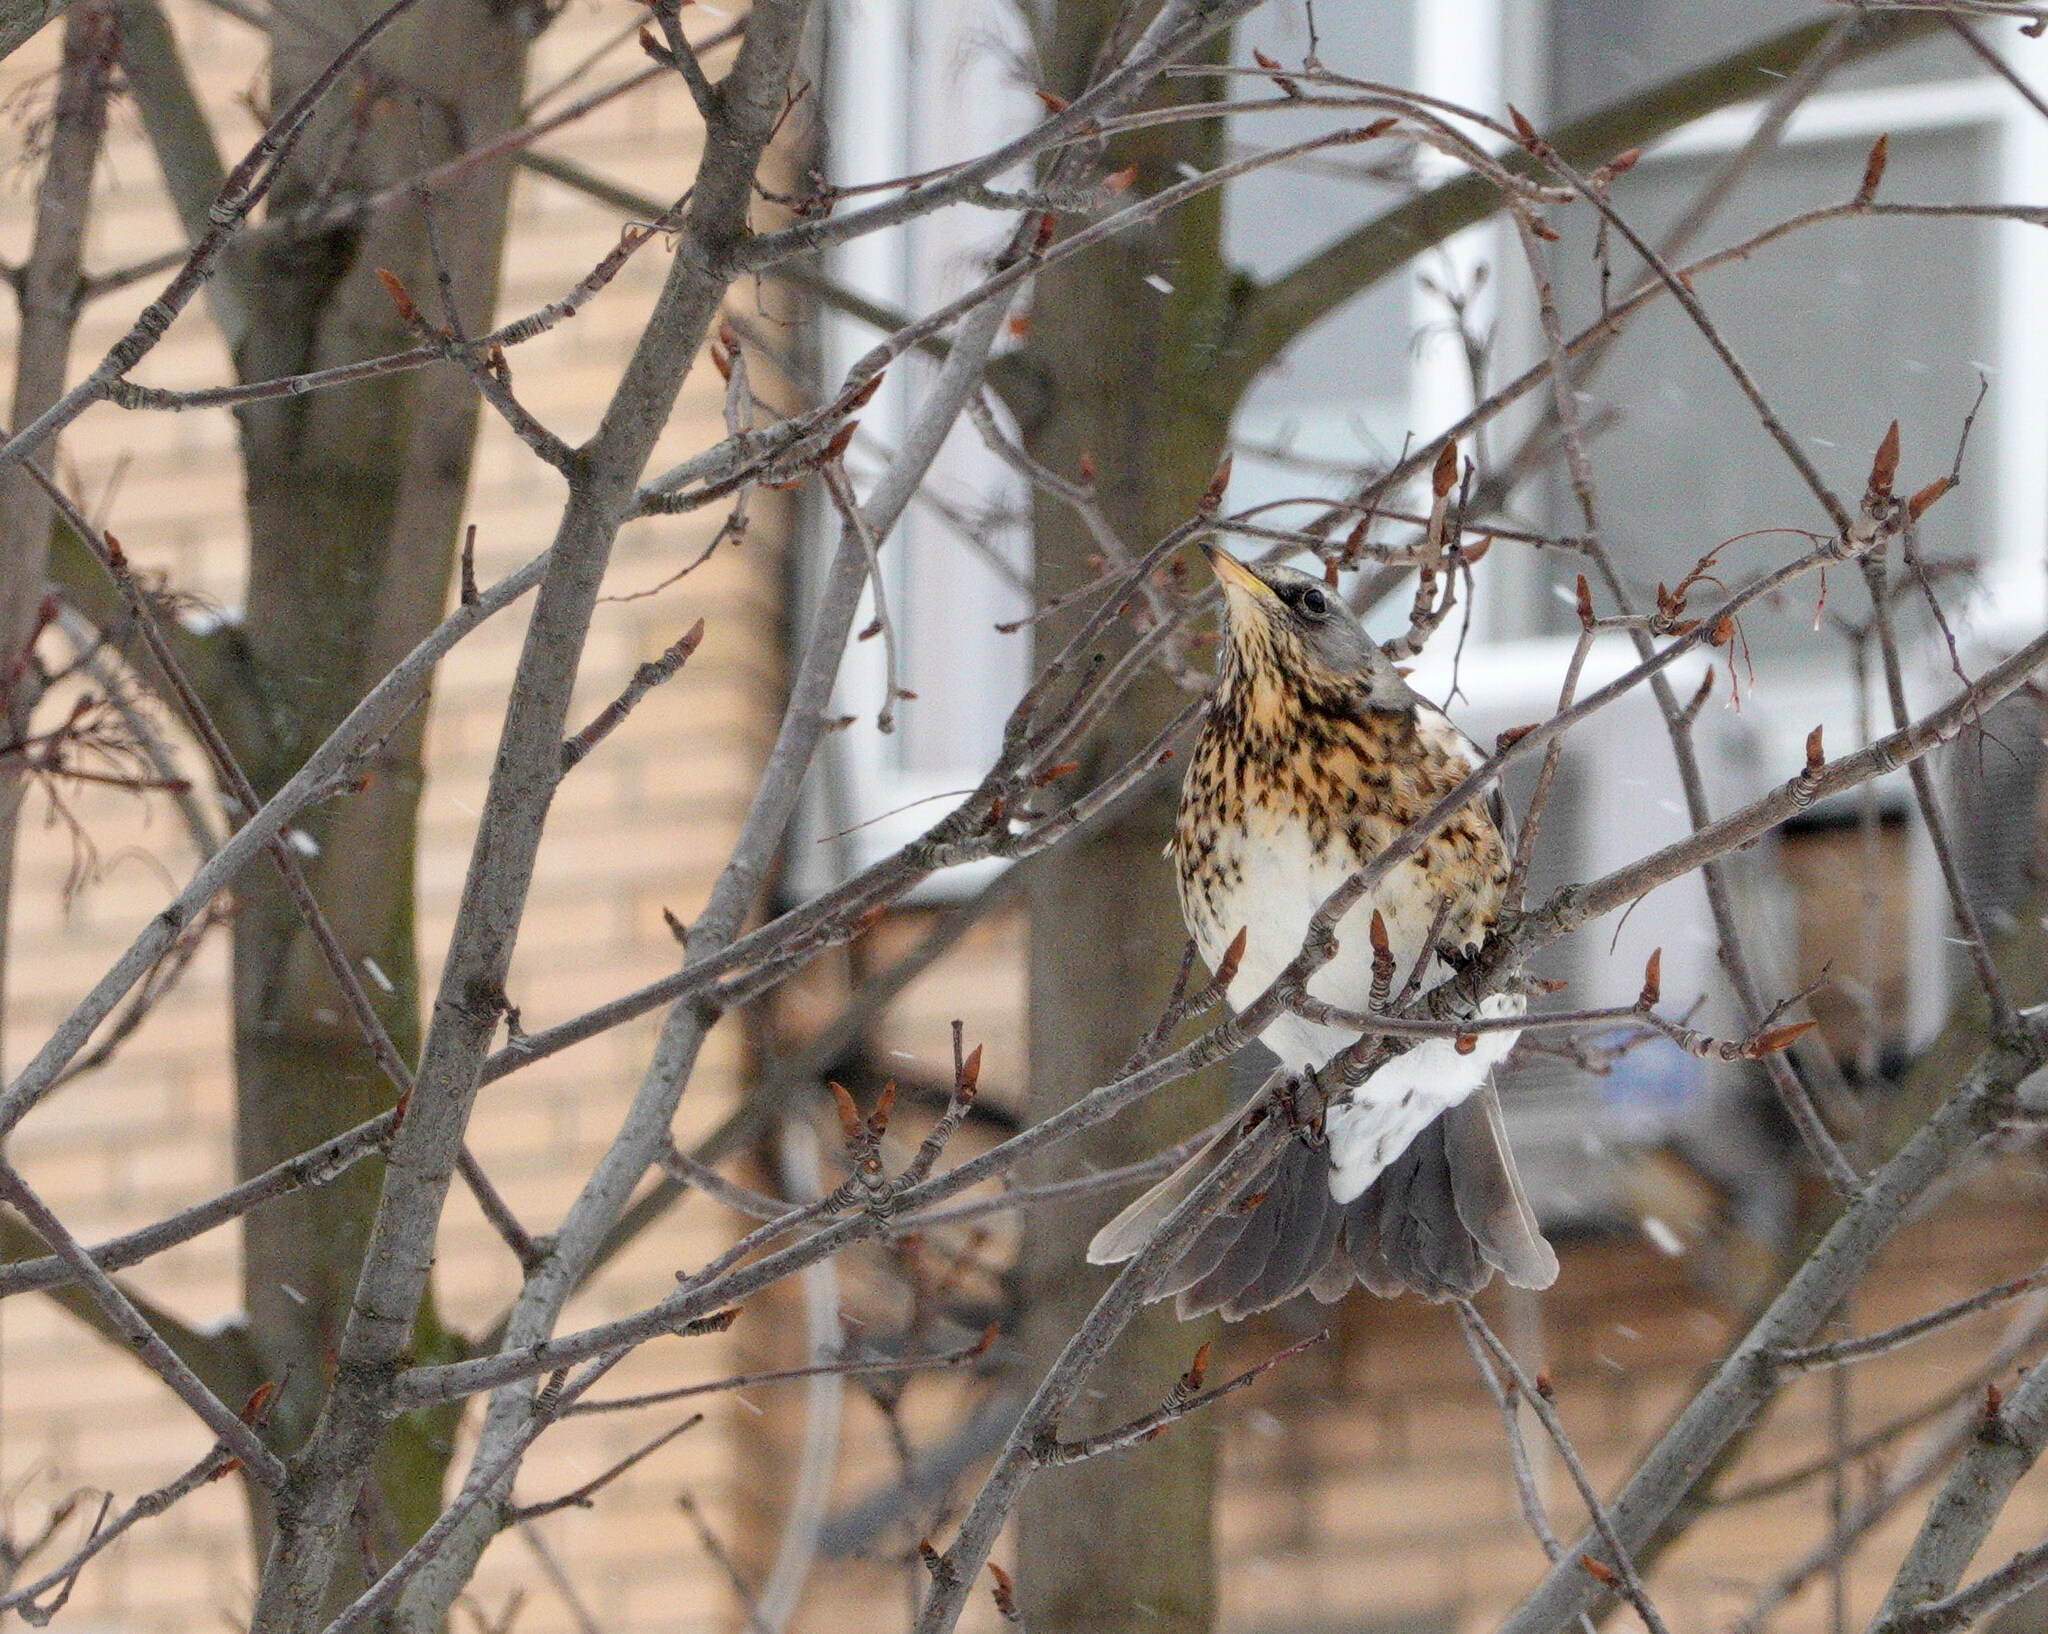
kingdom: Animalia
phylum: Chordata
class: Aves
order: Passeriformes
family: Turdidae
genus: Turdus
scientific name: Turdus pilaris
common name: Fieldfare
